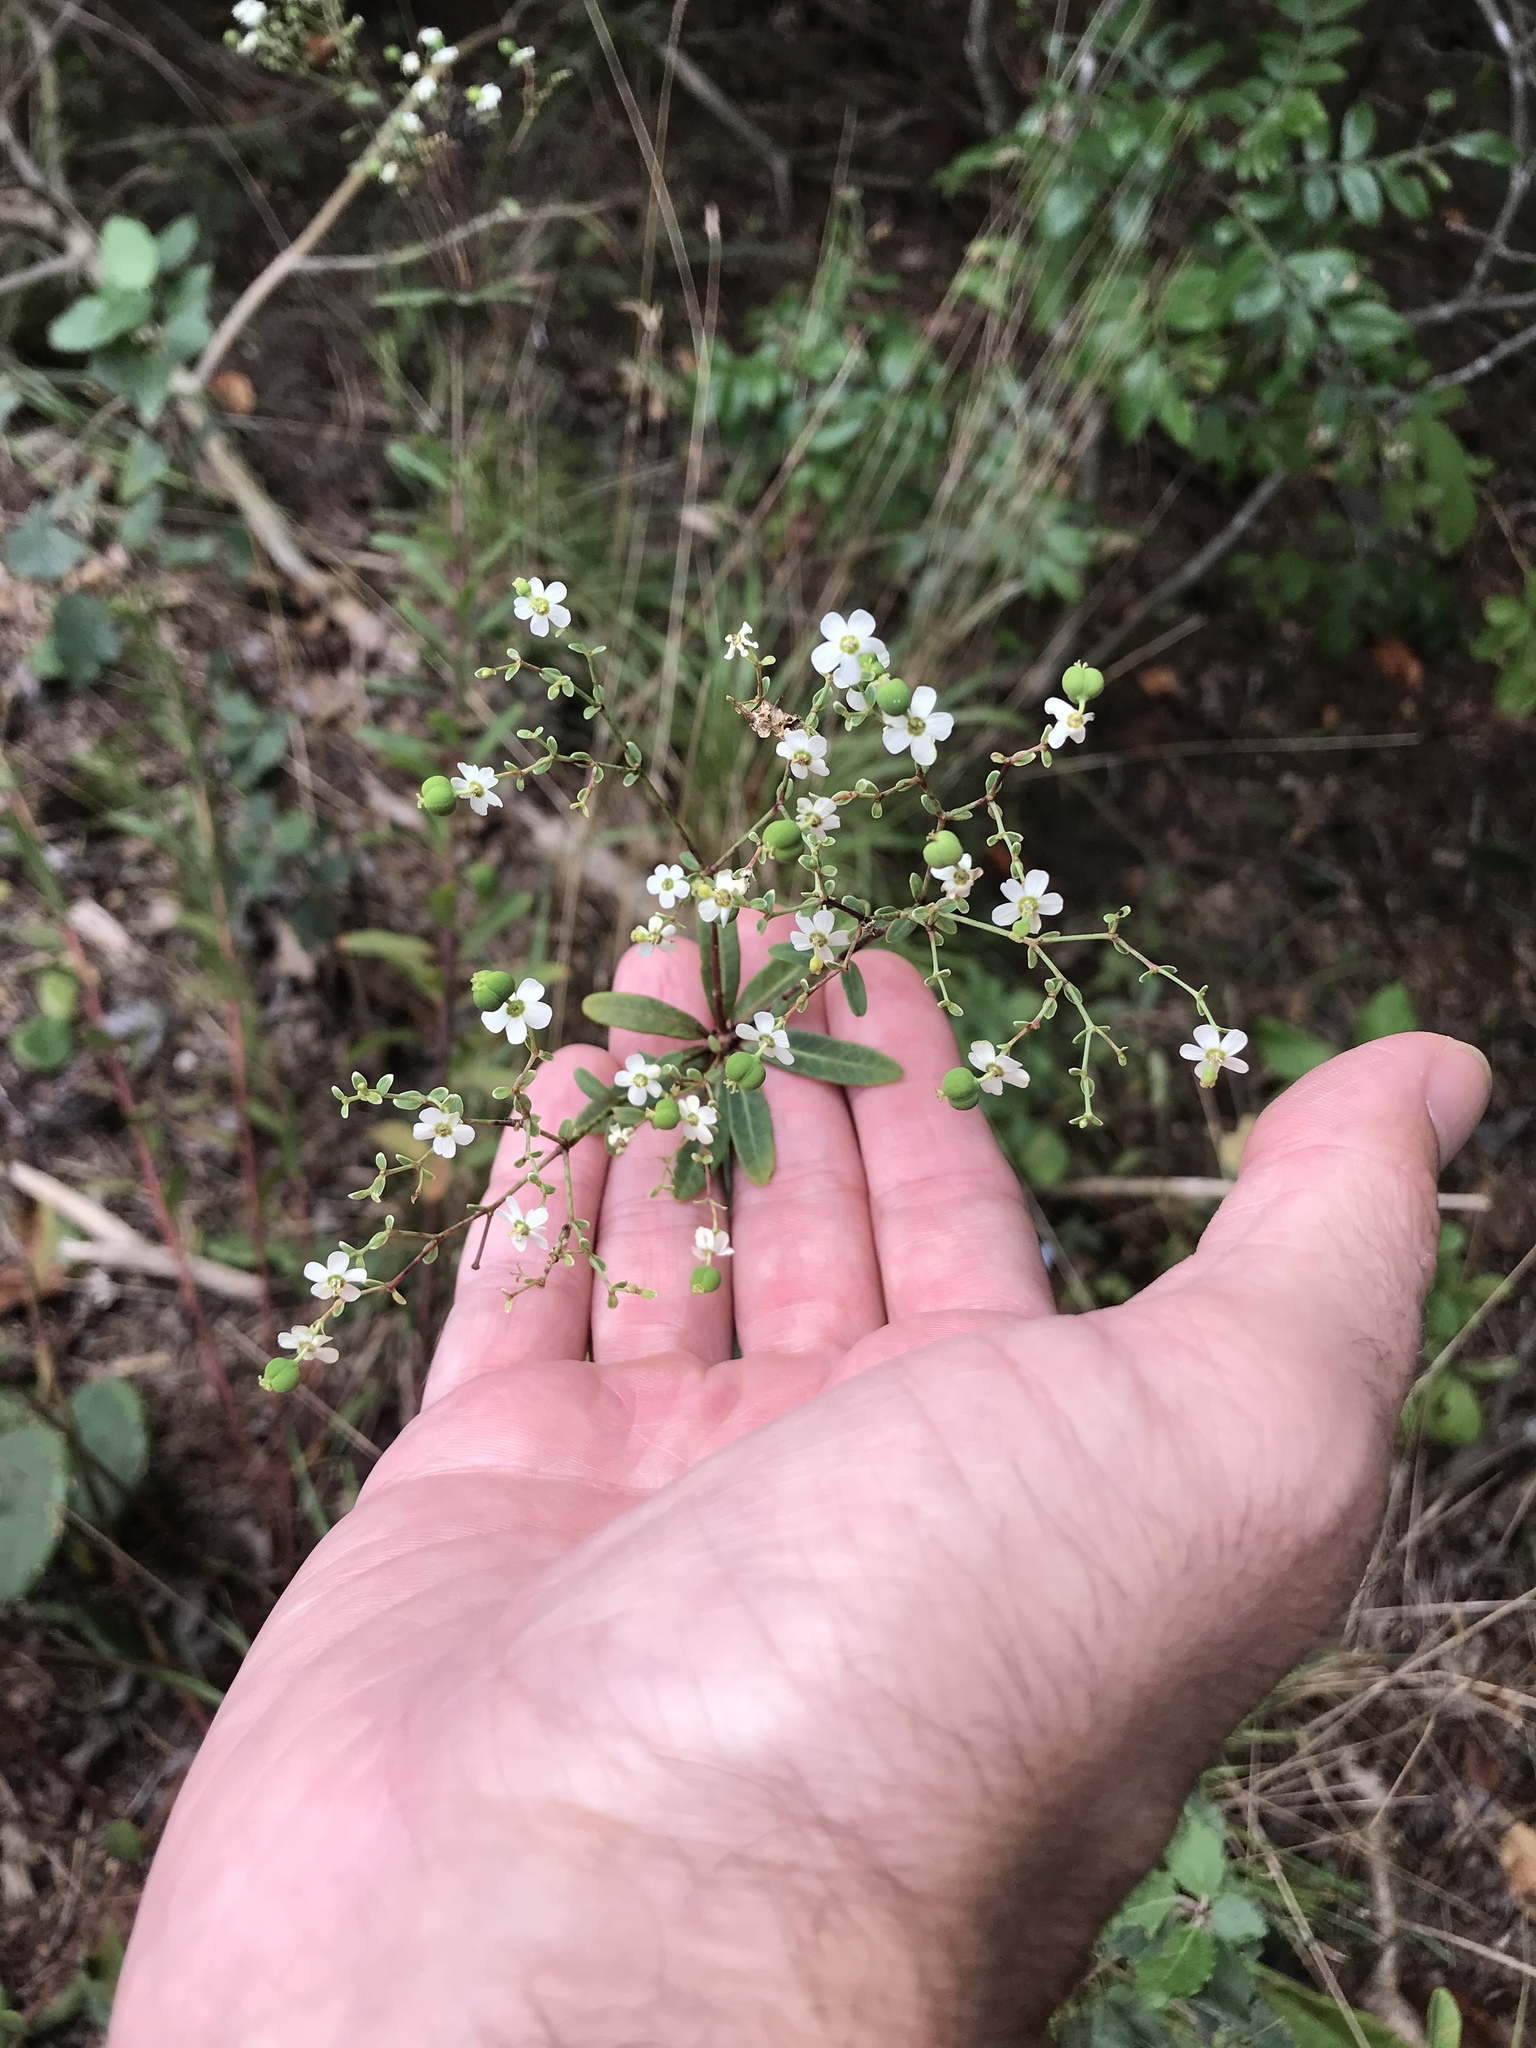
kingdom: Plantae
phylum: Tracheophyta
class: Magnoliopsida
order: Malpighiales
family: Euphorbiaceae
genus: Euphorbia
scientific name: Euphorbia corollata
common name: Flowering spurge
